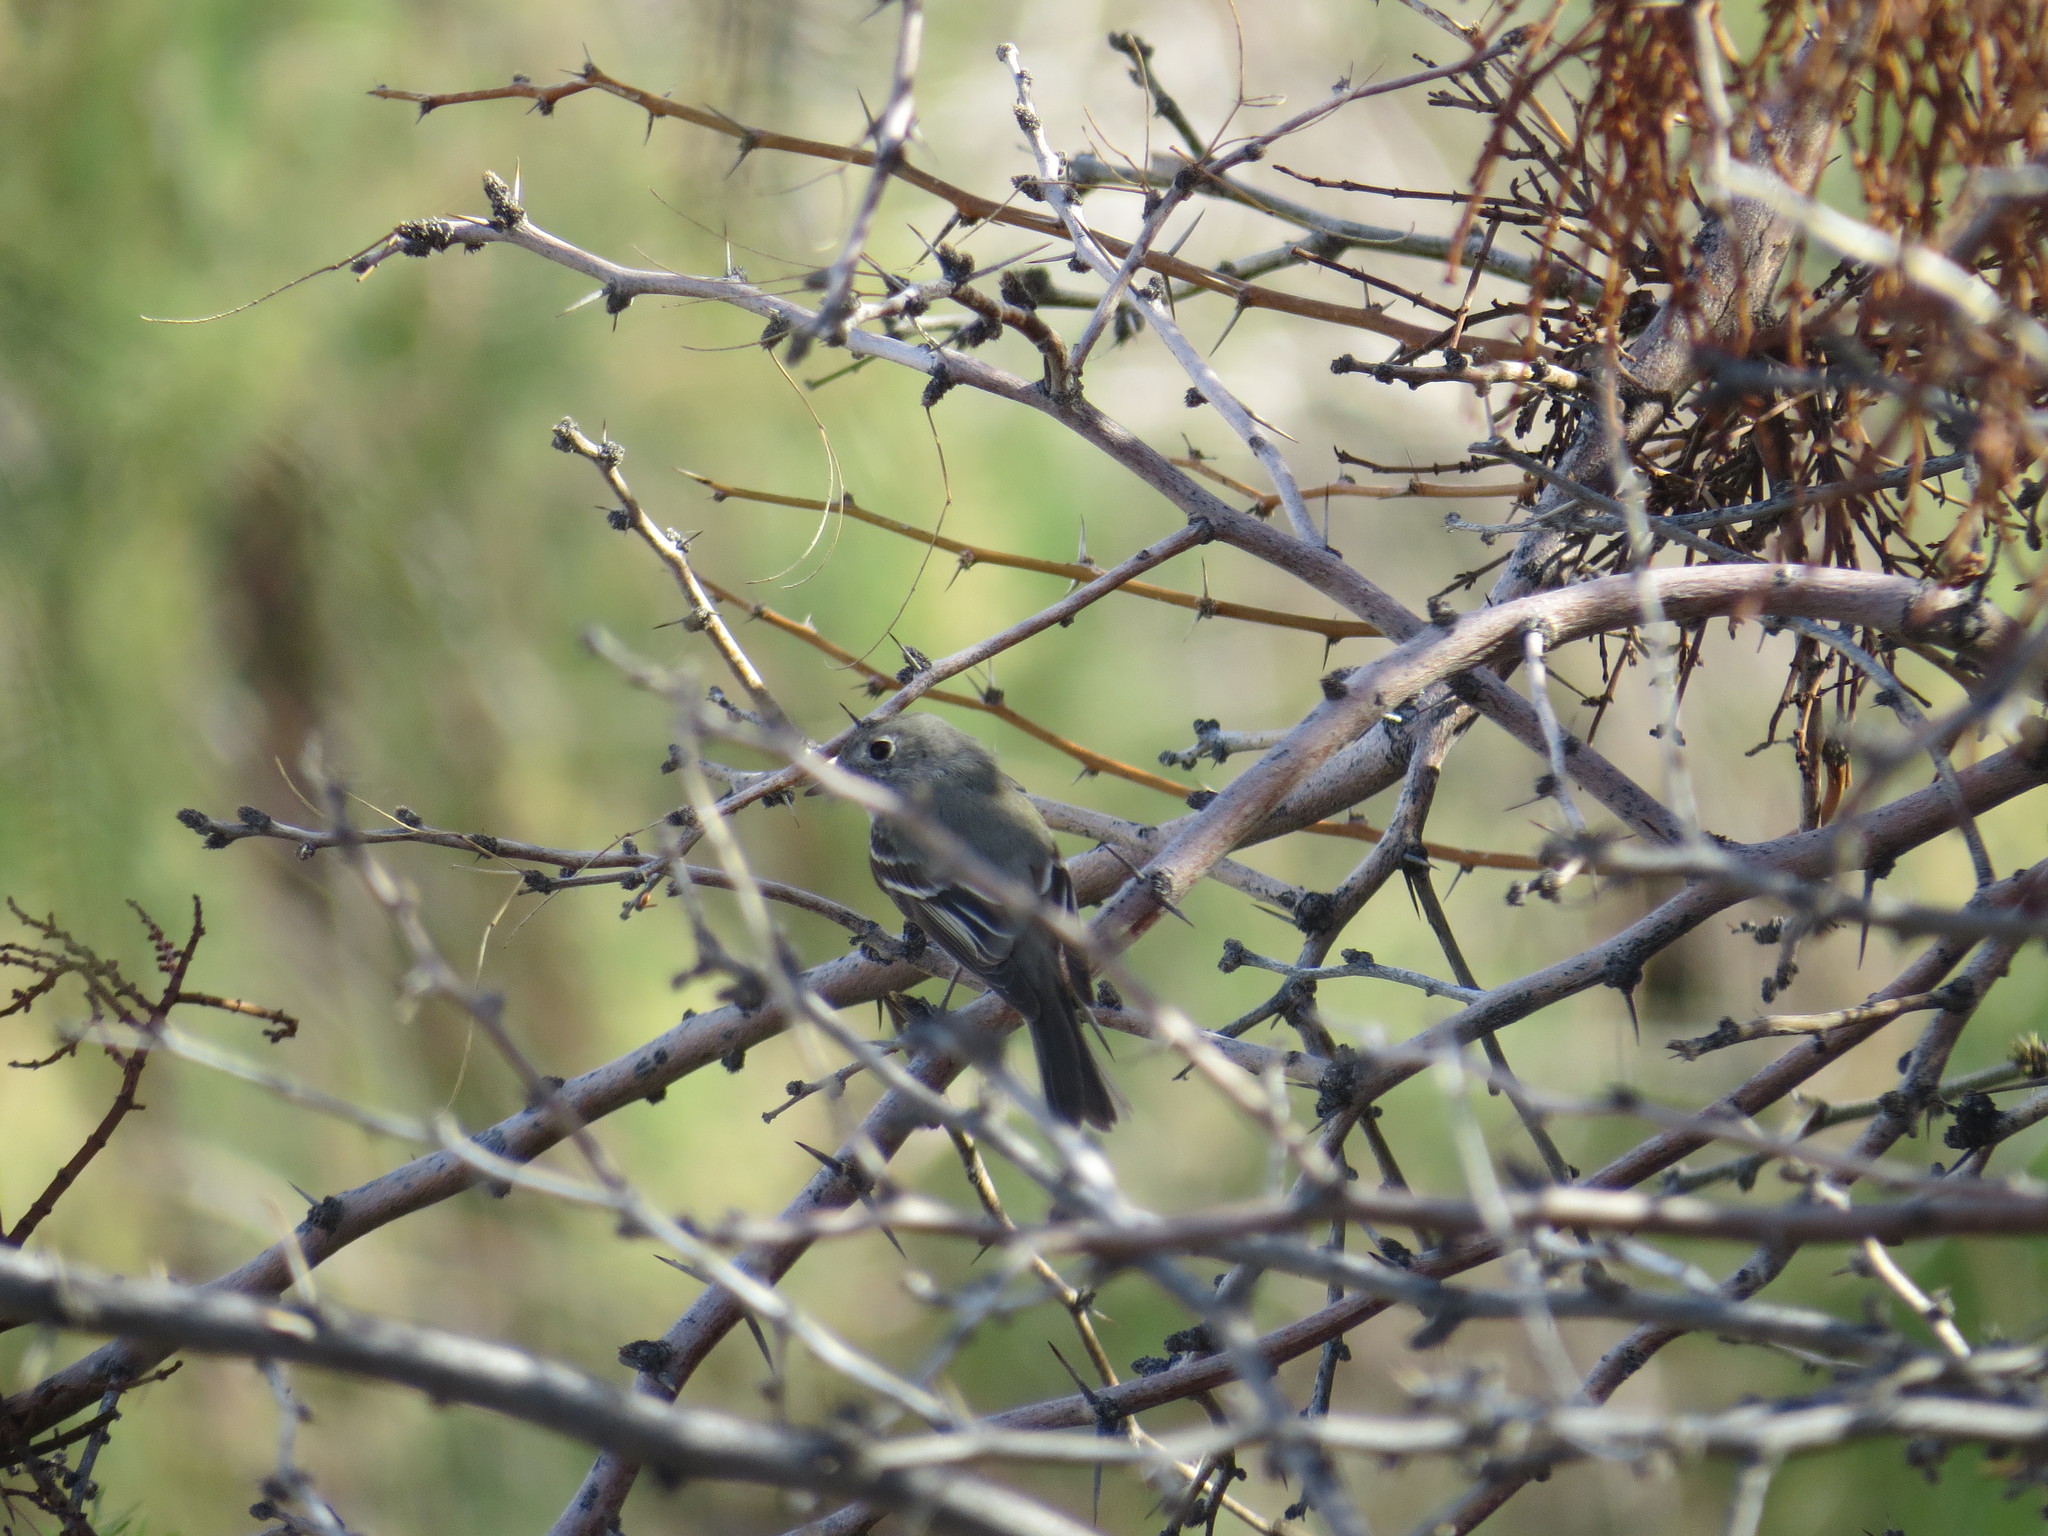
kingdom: Animalia
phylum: Chordata
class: Aves
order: Passeriformes
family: Tyrannidae
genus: Empidonax
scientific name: Empidonax hammondii
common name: Hammond's flycatcher
